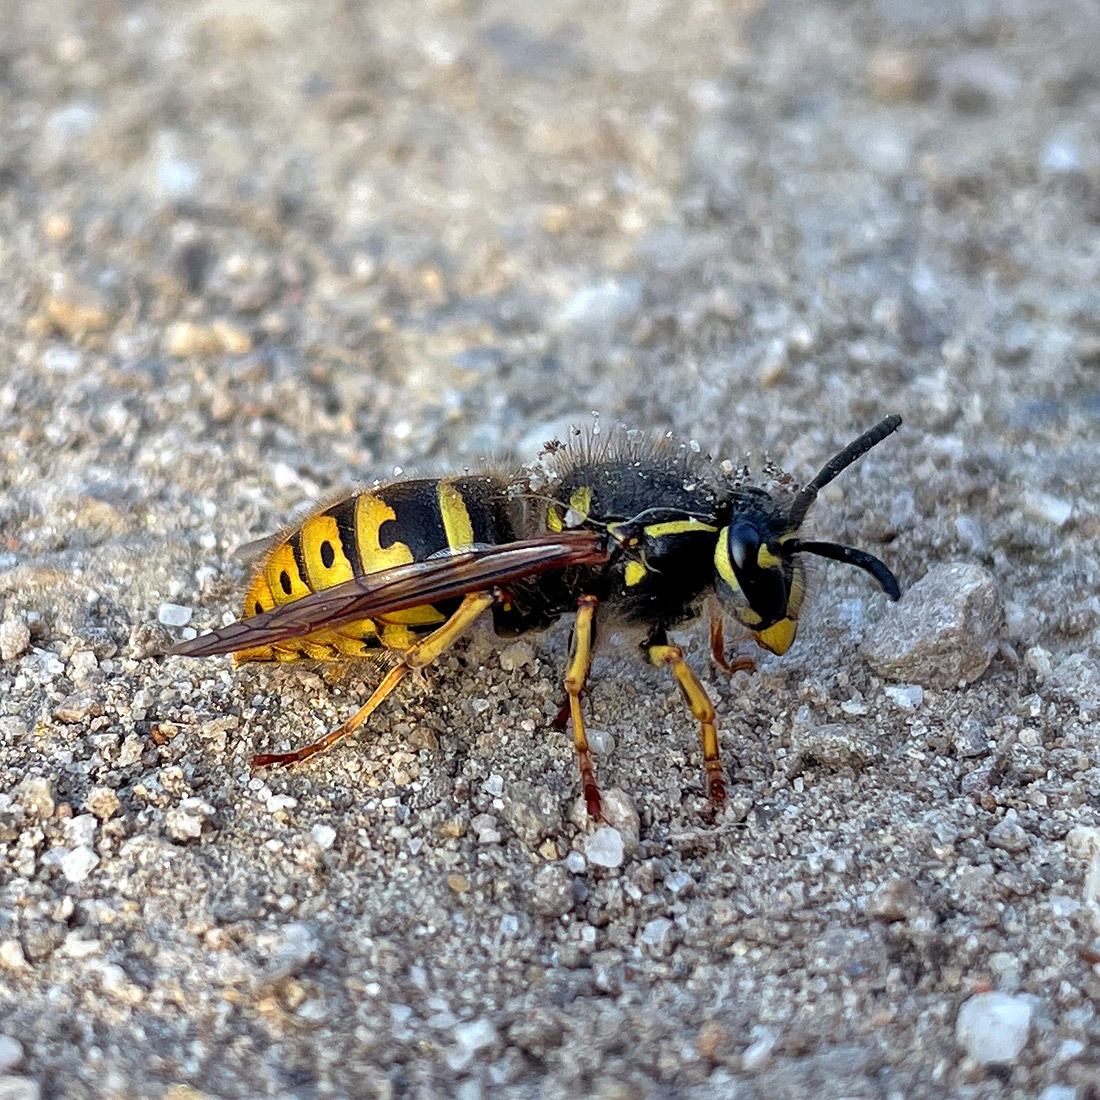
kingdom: Animalia
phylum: Arthropoda
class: Insecta
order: Hymenoptera
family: Vespidae
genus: Vespula
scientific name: Vespula vulgaris
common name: Common wasp
